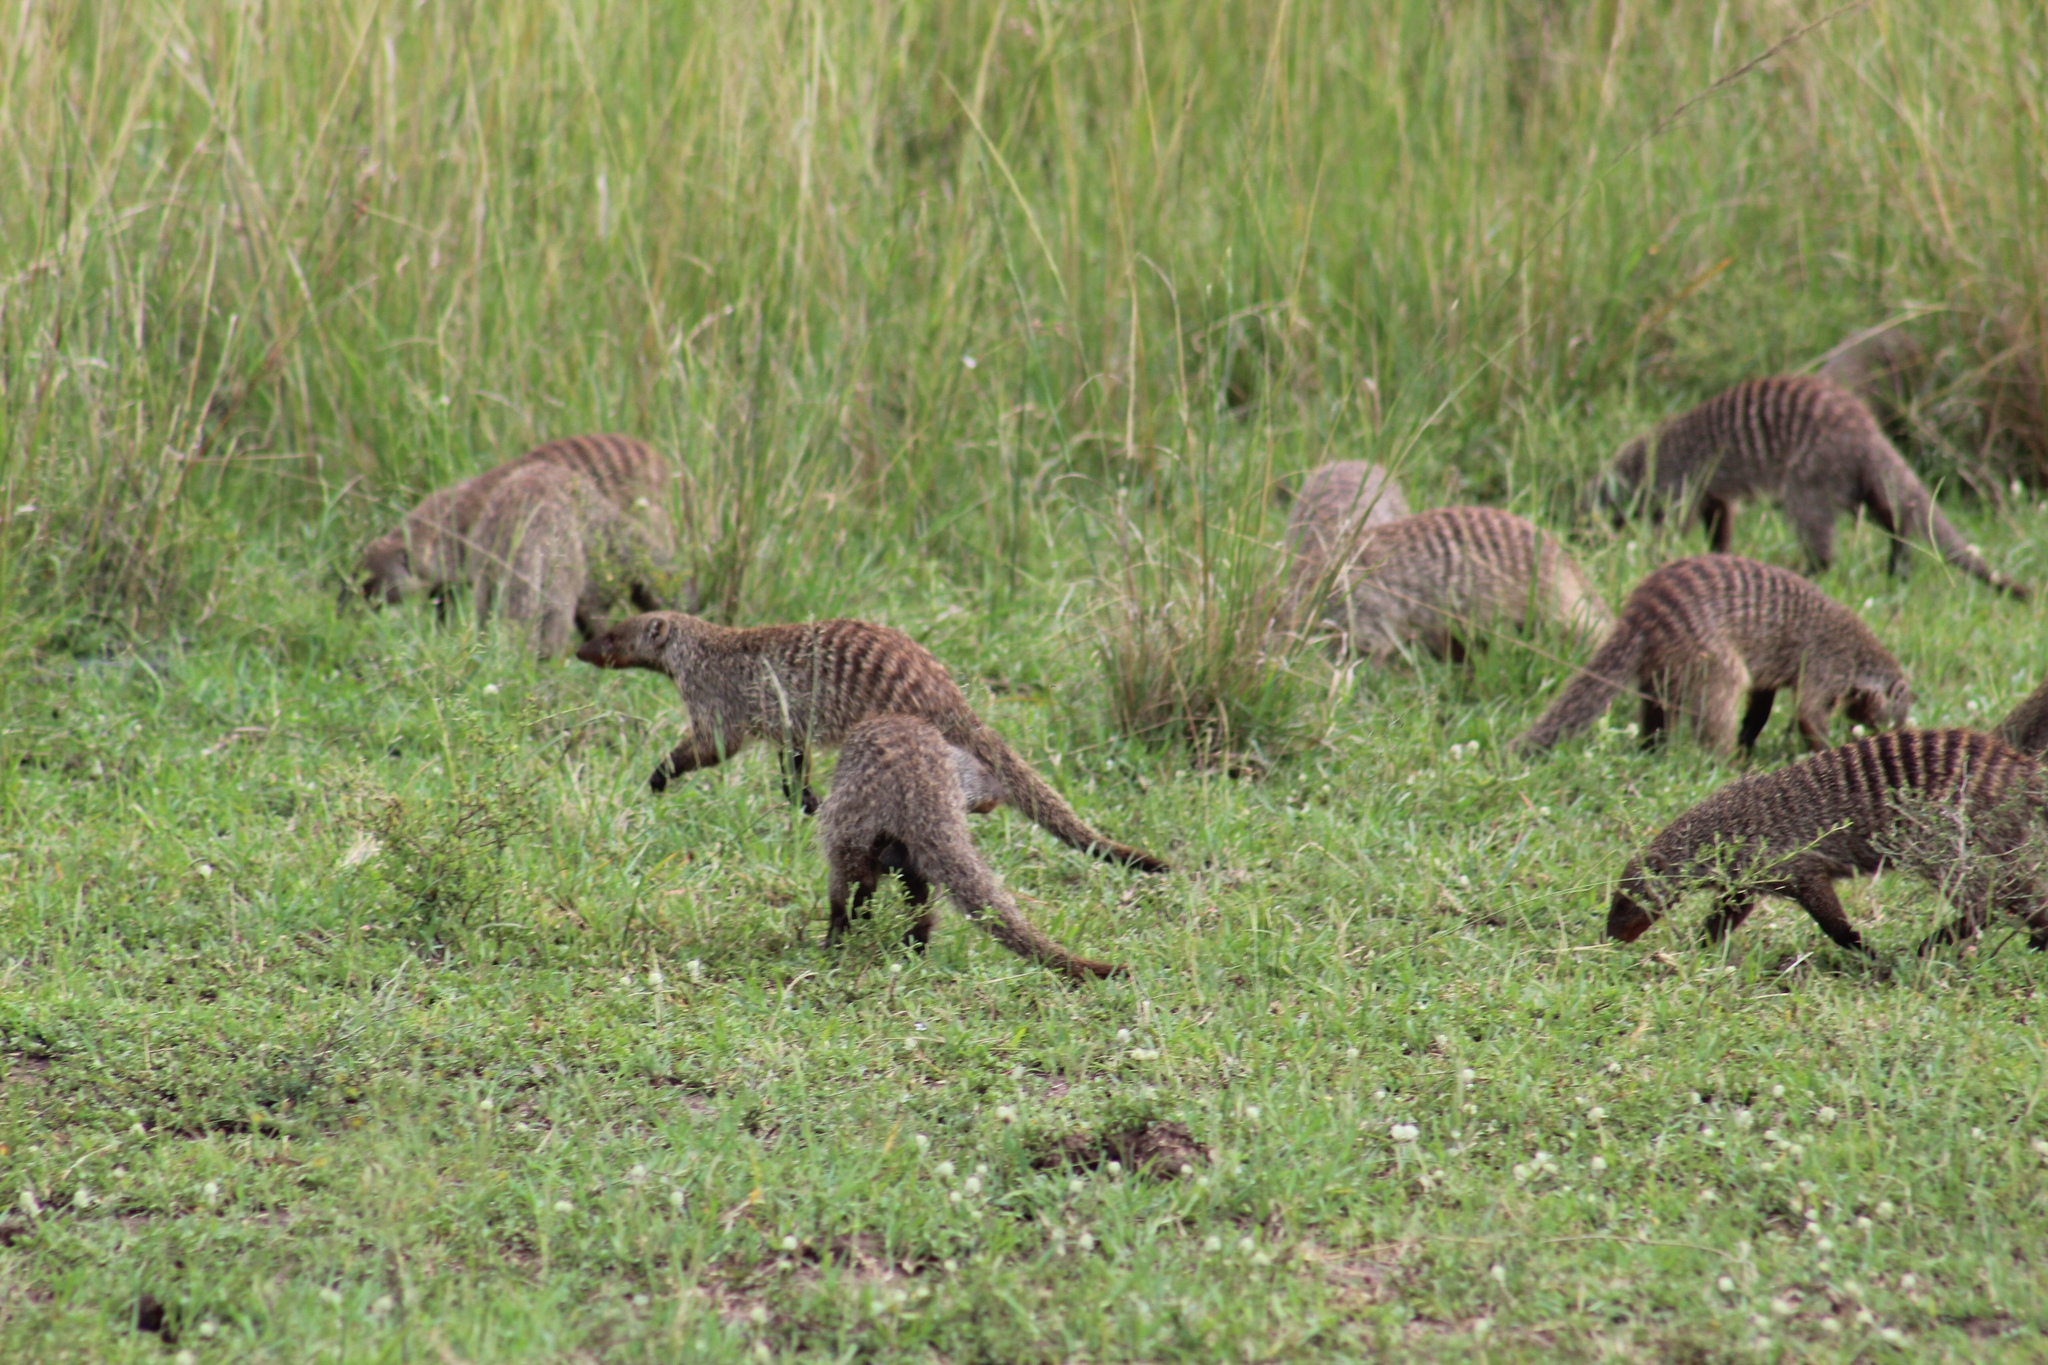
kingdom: Animalia
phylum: Chordata
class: Mammalia
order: Carnivora
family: Herpestidae
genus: Mungos
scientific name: Mungos mungo
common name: Banded mongoose
